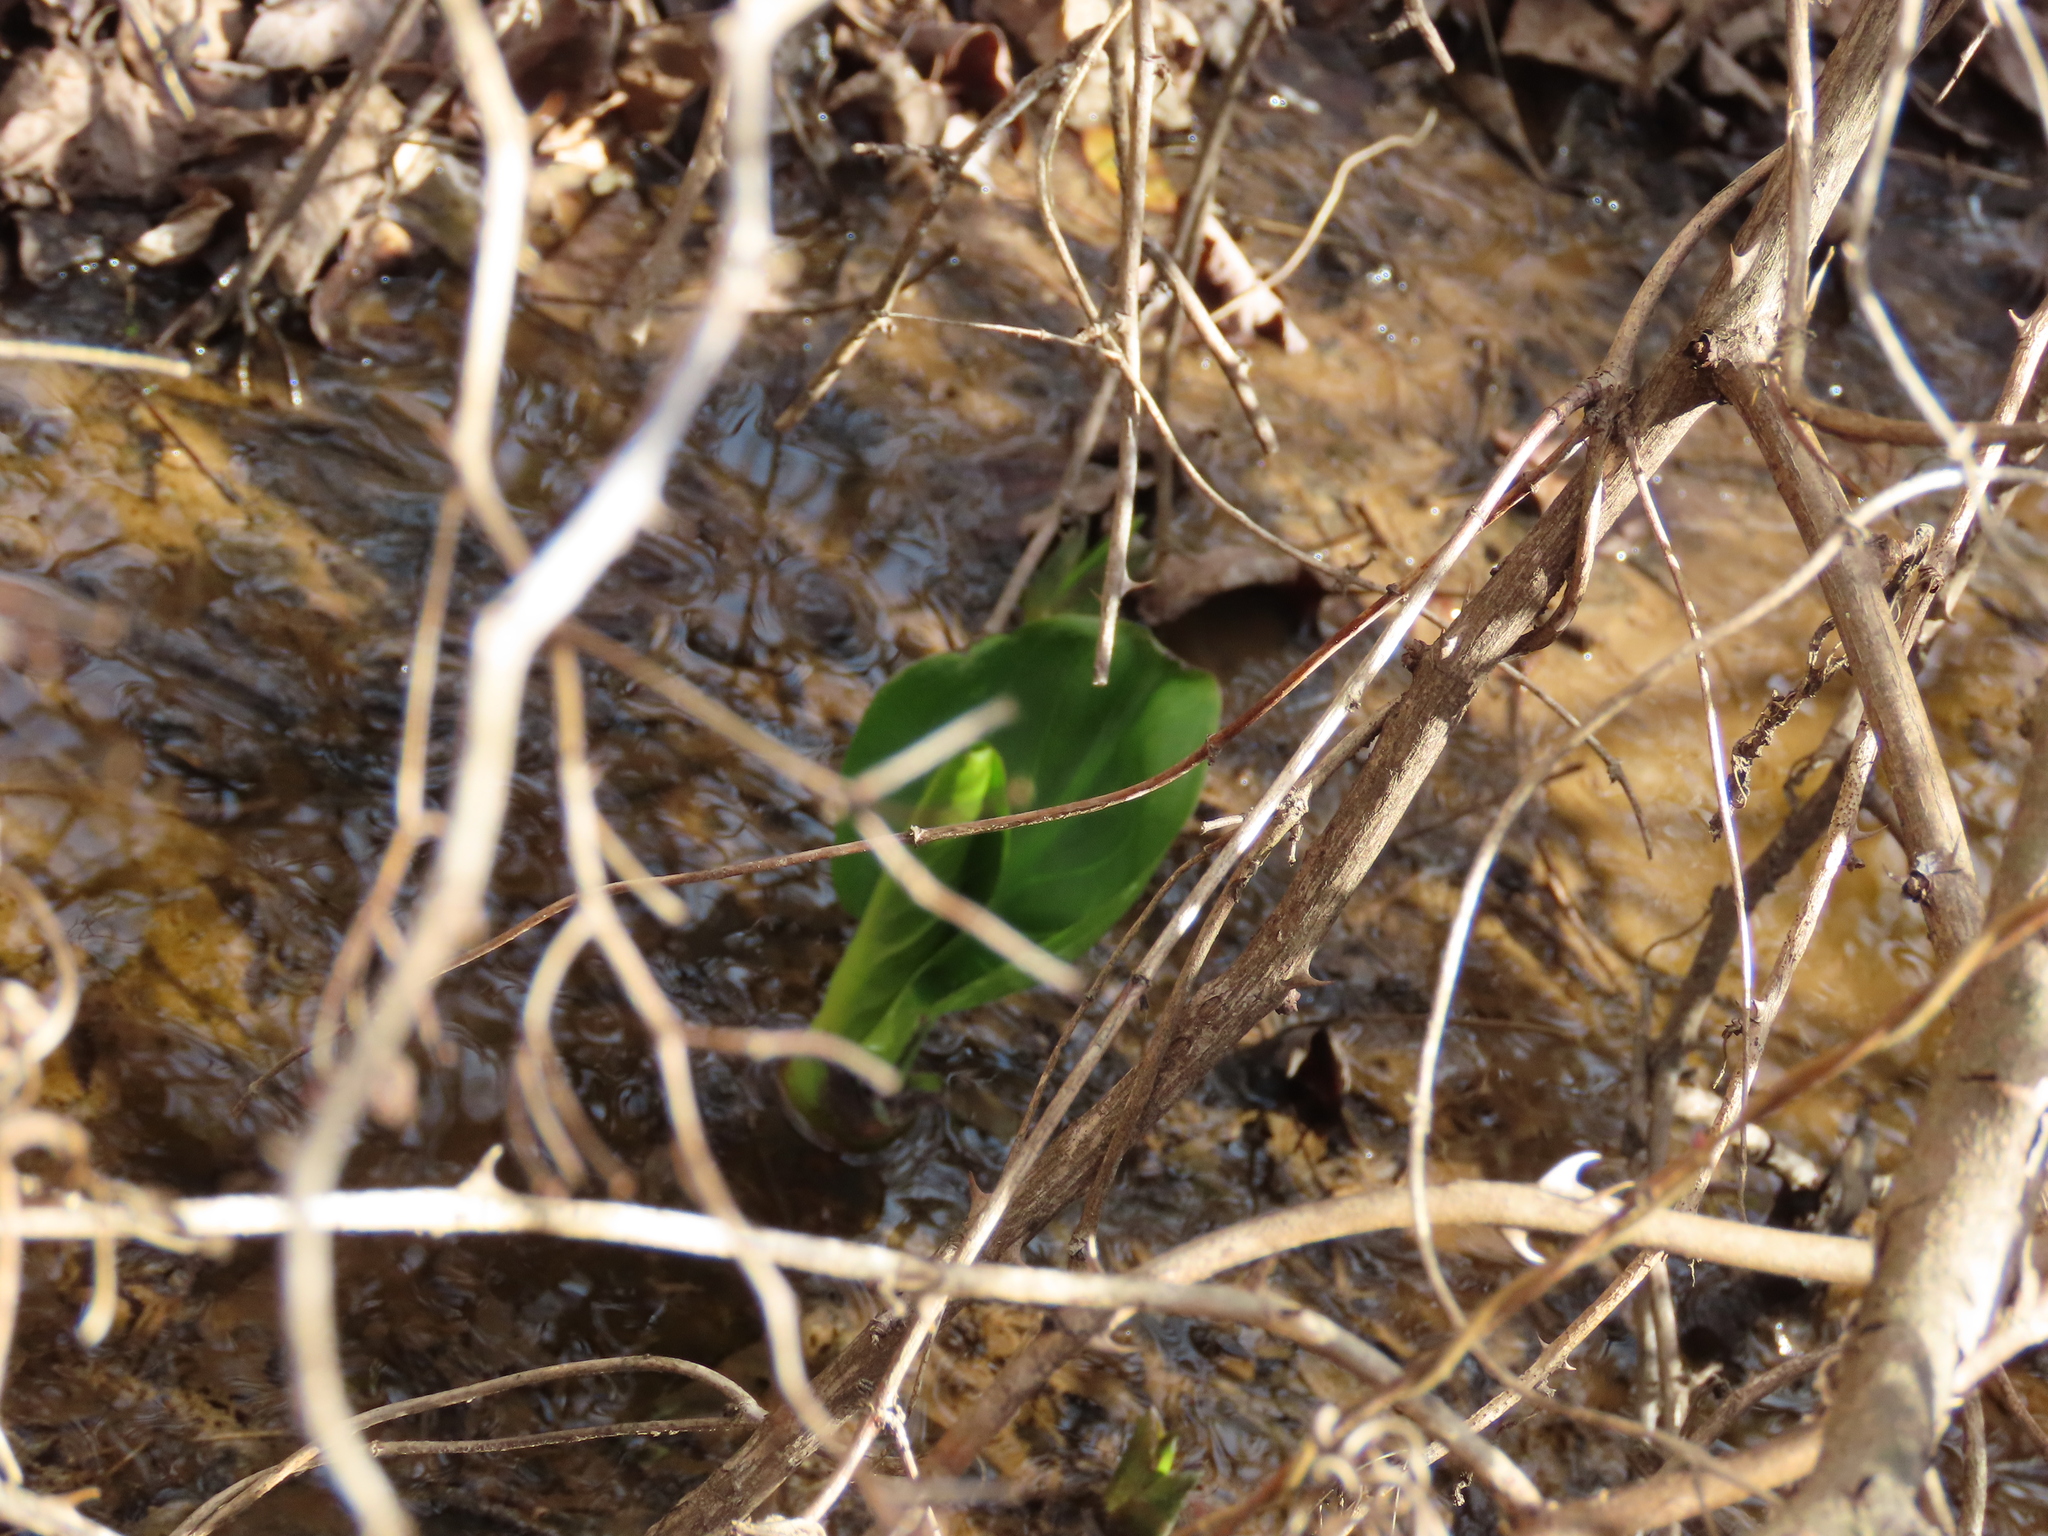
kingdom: Plantae
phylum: Tracheophyta
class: Liliopsida
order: Alismatales
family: Araceae
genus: Symplocarpus
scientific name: Symplocarpus foetidus
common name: Eastern skunk cabbage
